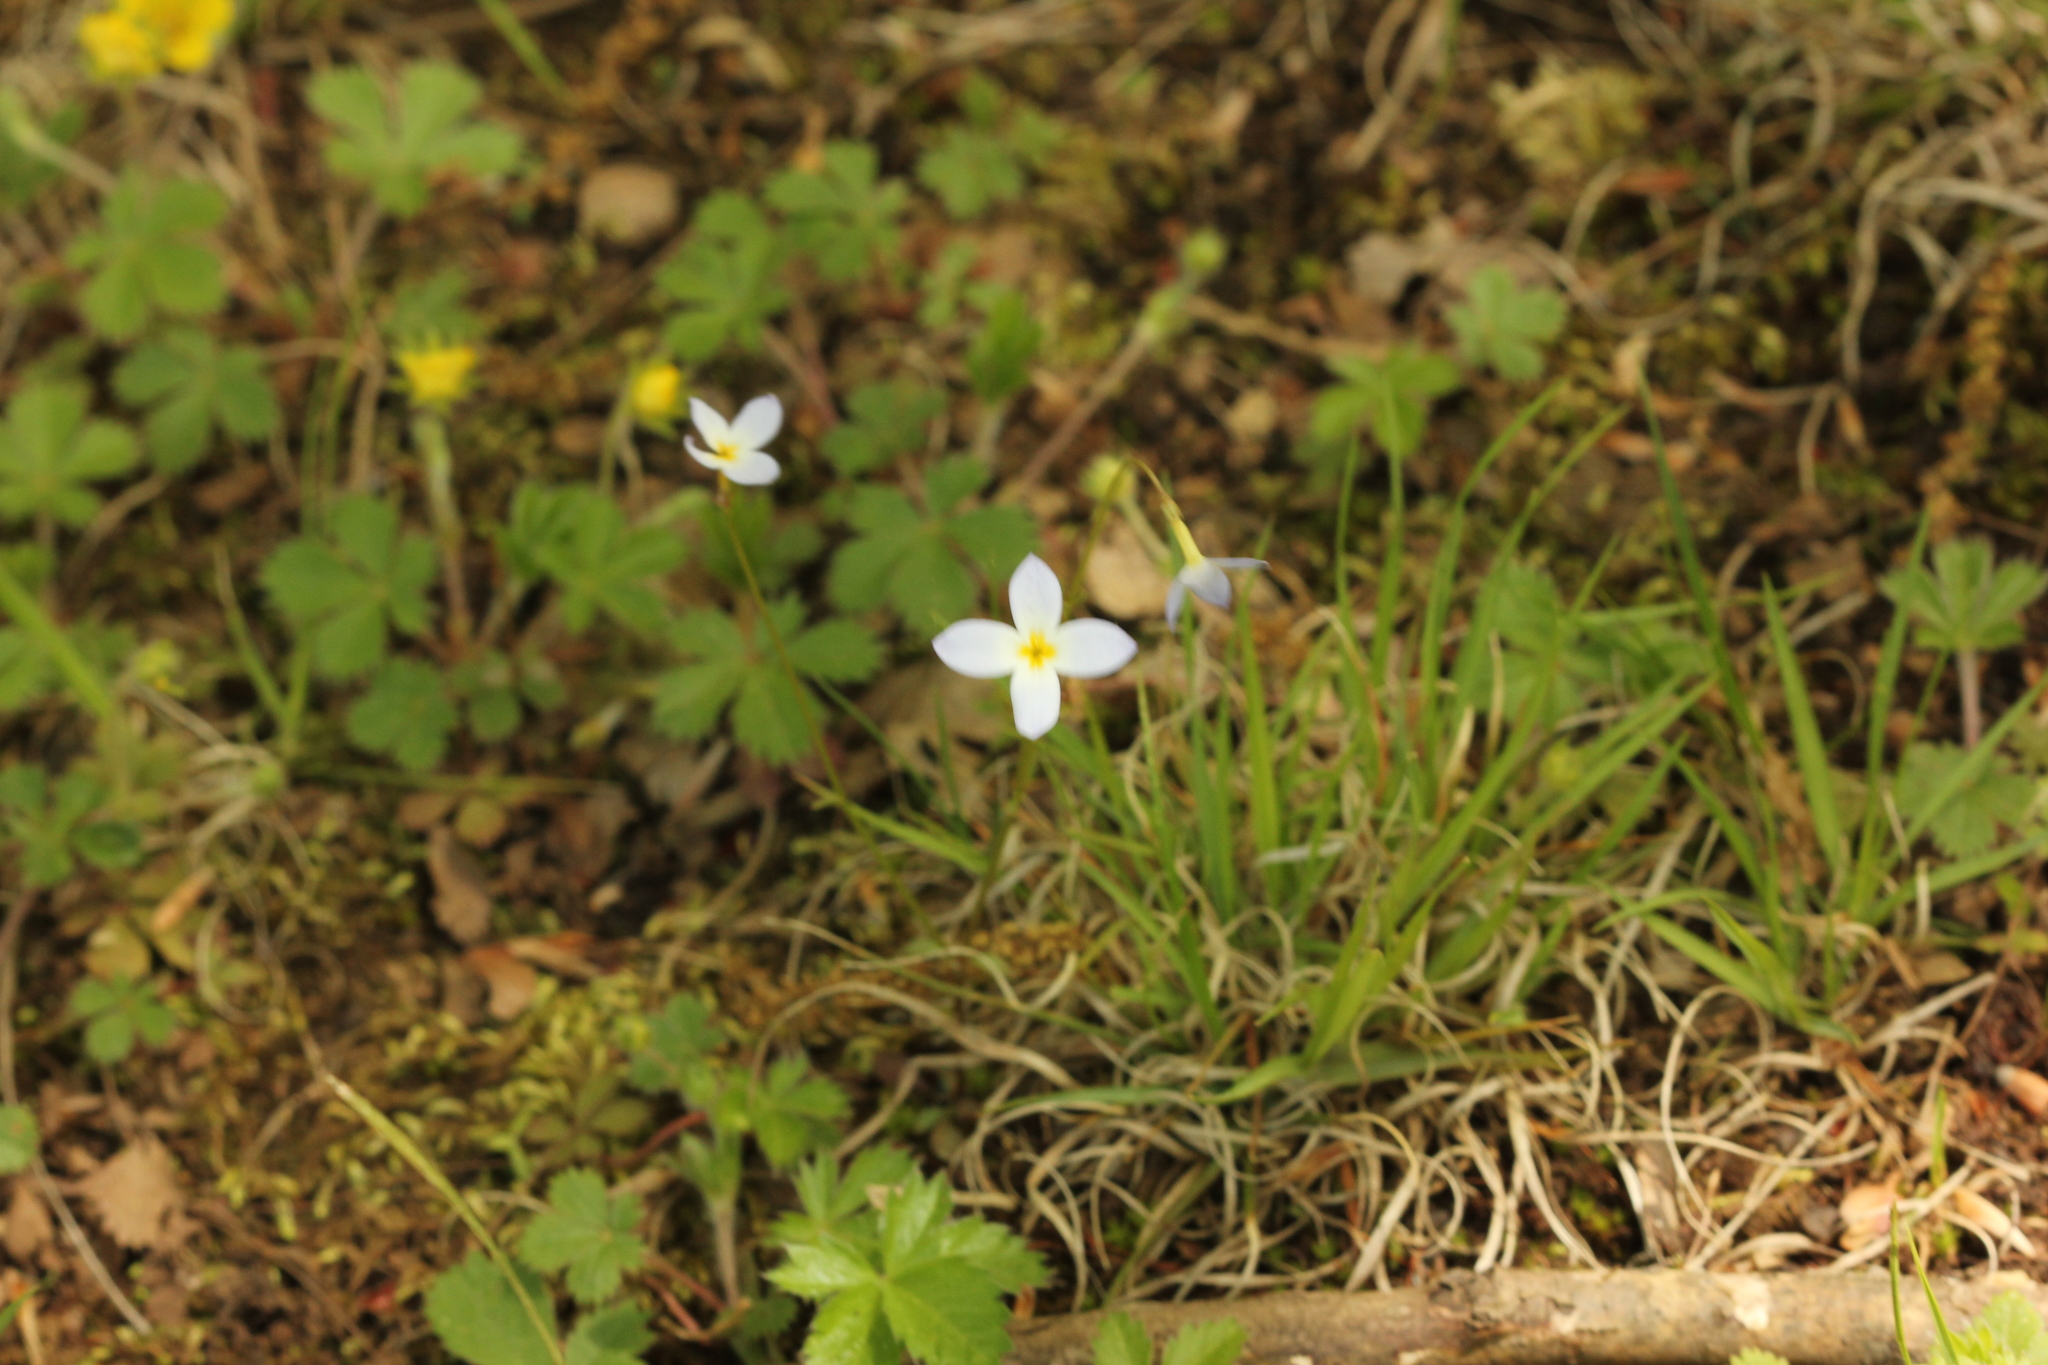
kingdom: Plantae
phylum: Tracheophyta
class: Magnoliopsida
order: Gentianales
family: Rubiaceae
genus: Houstonia
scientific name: Houstonia caerulea
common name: Bluets
